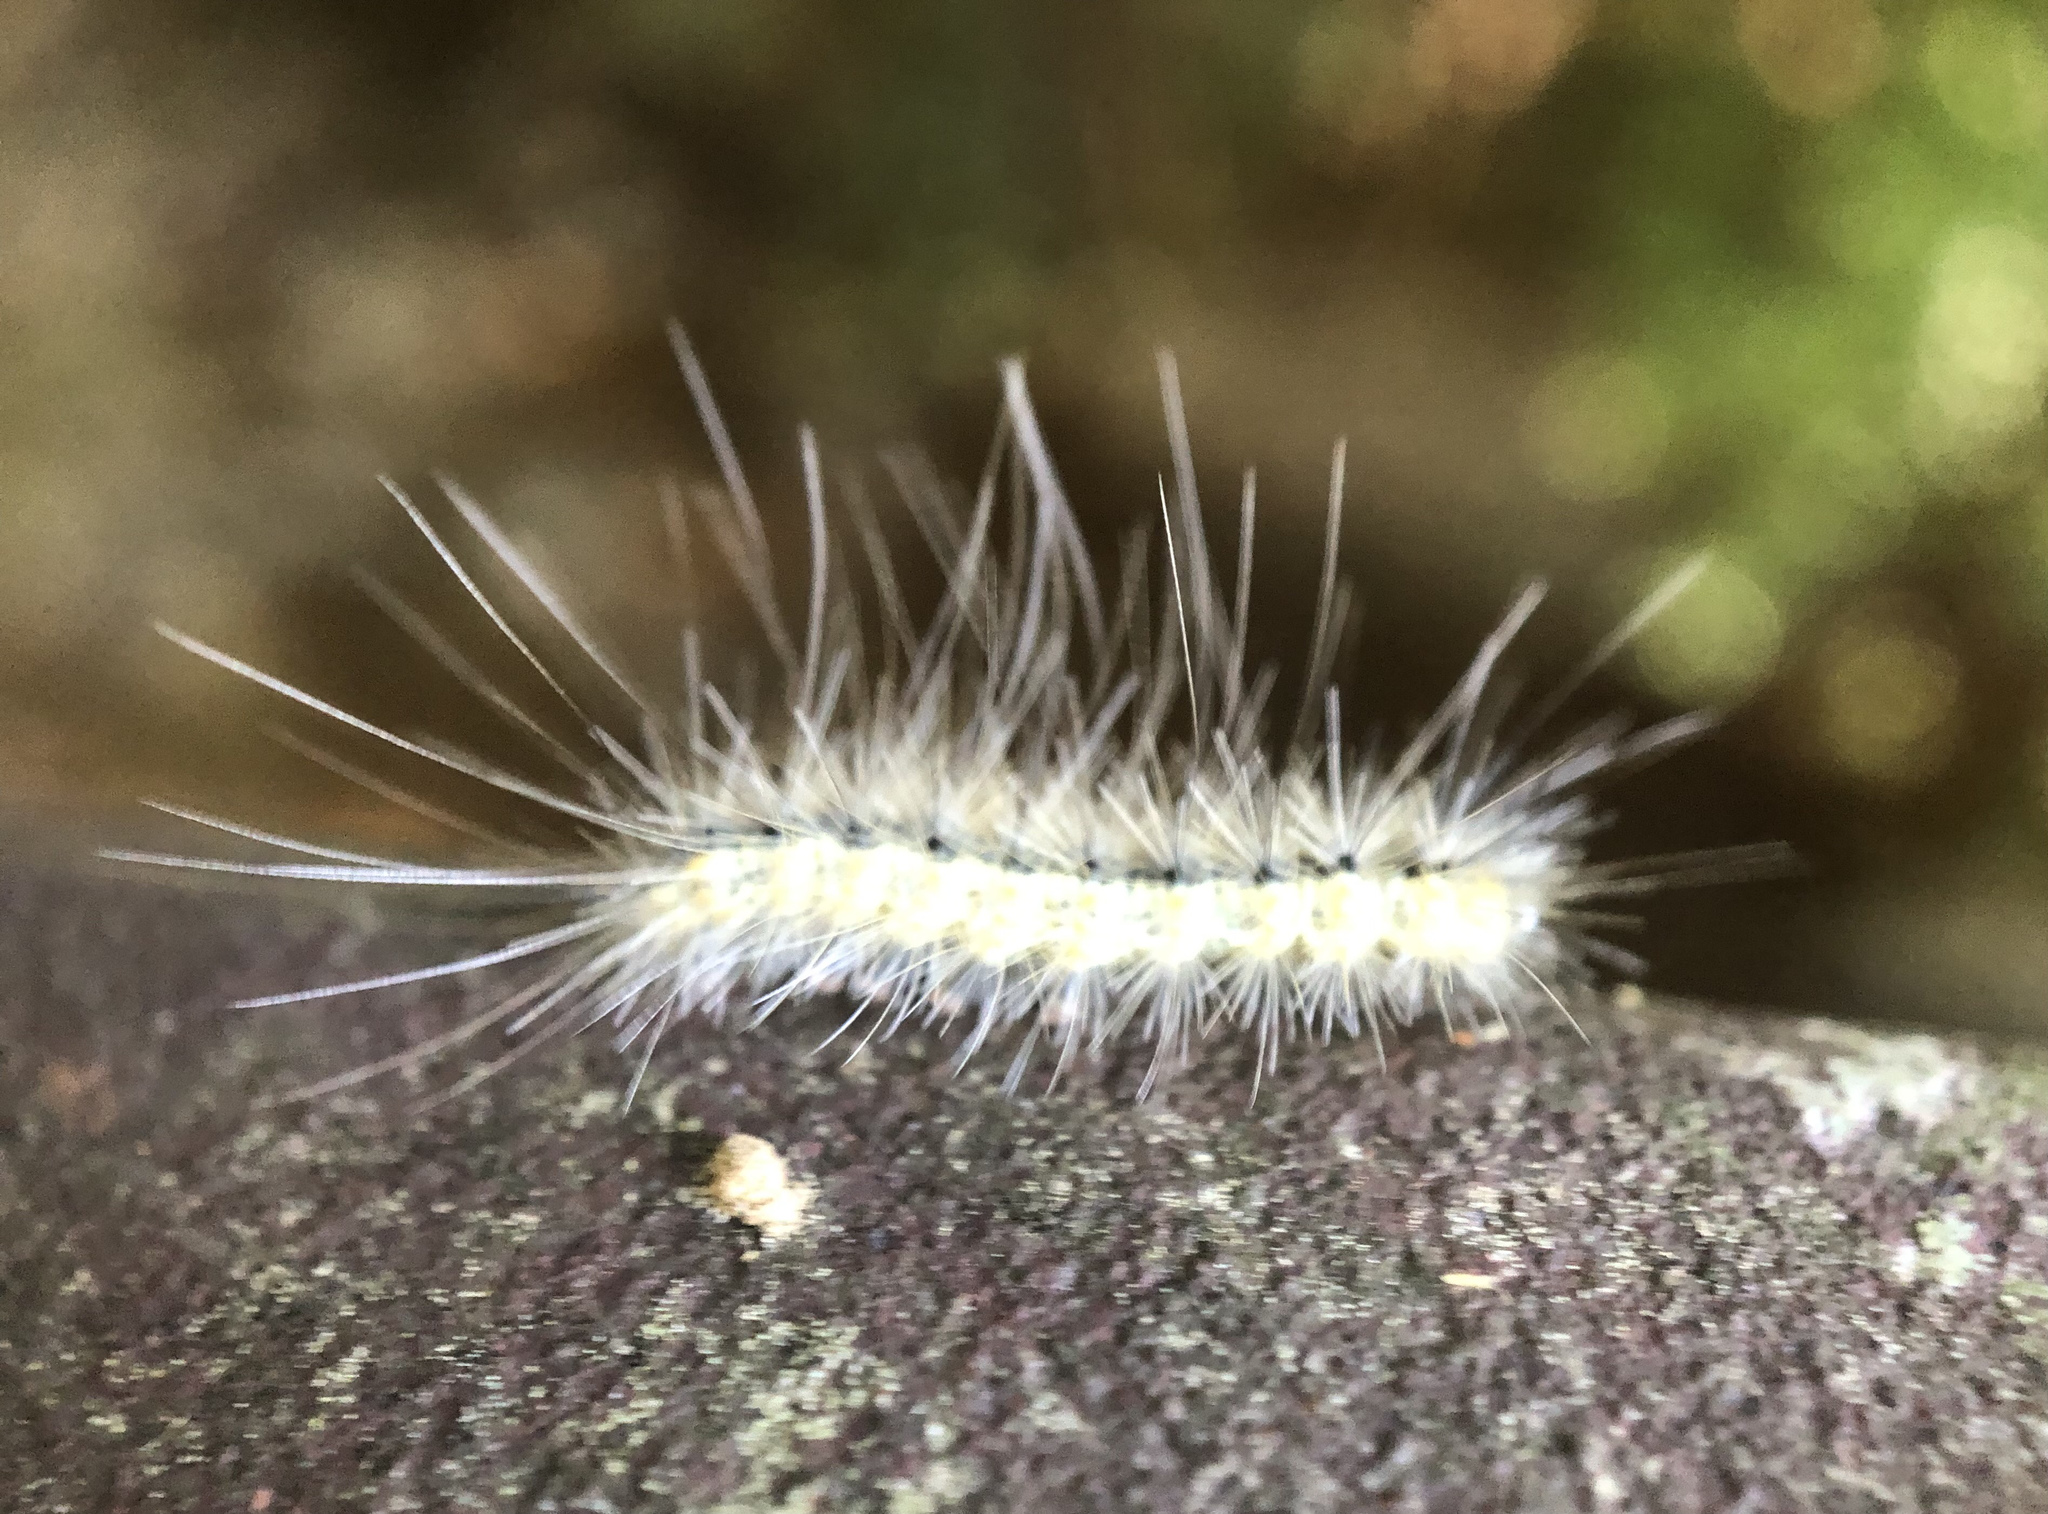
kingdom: Animalia
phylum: Arthropoda
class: Insecta
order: Lepidoptera
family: Erebidae
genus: Hyphantria
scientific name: Hyphantria cunea
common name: American white moth
